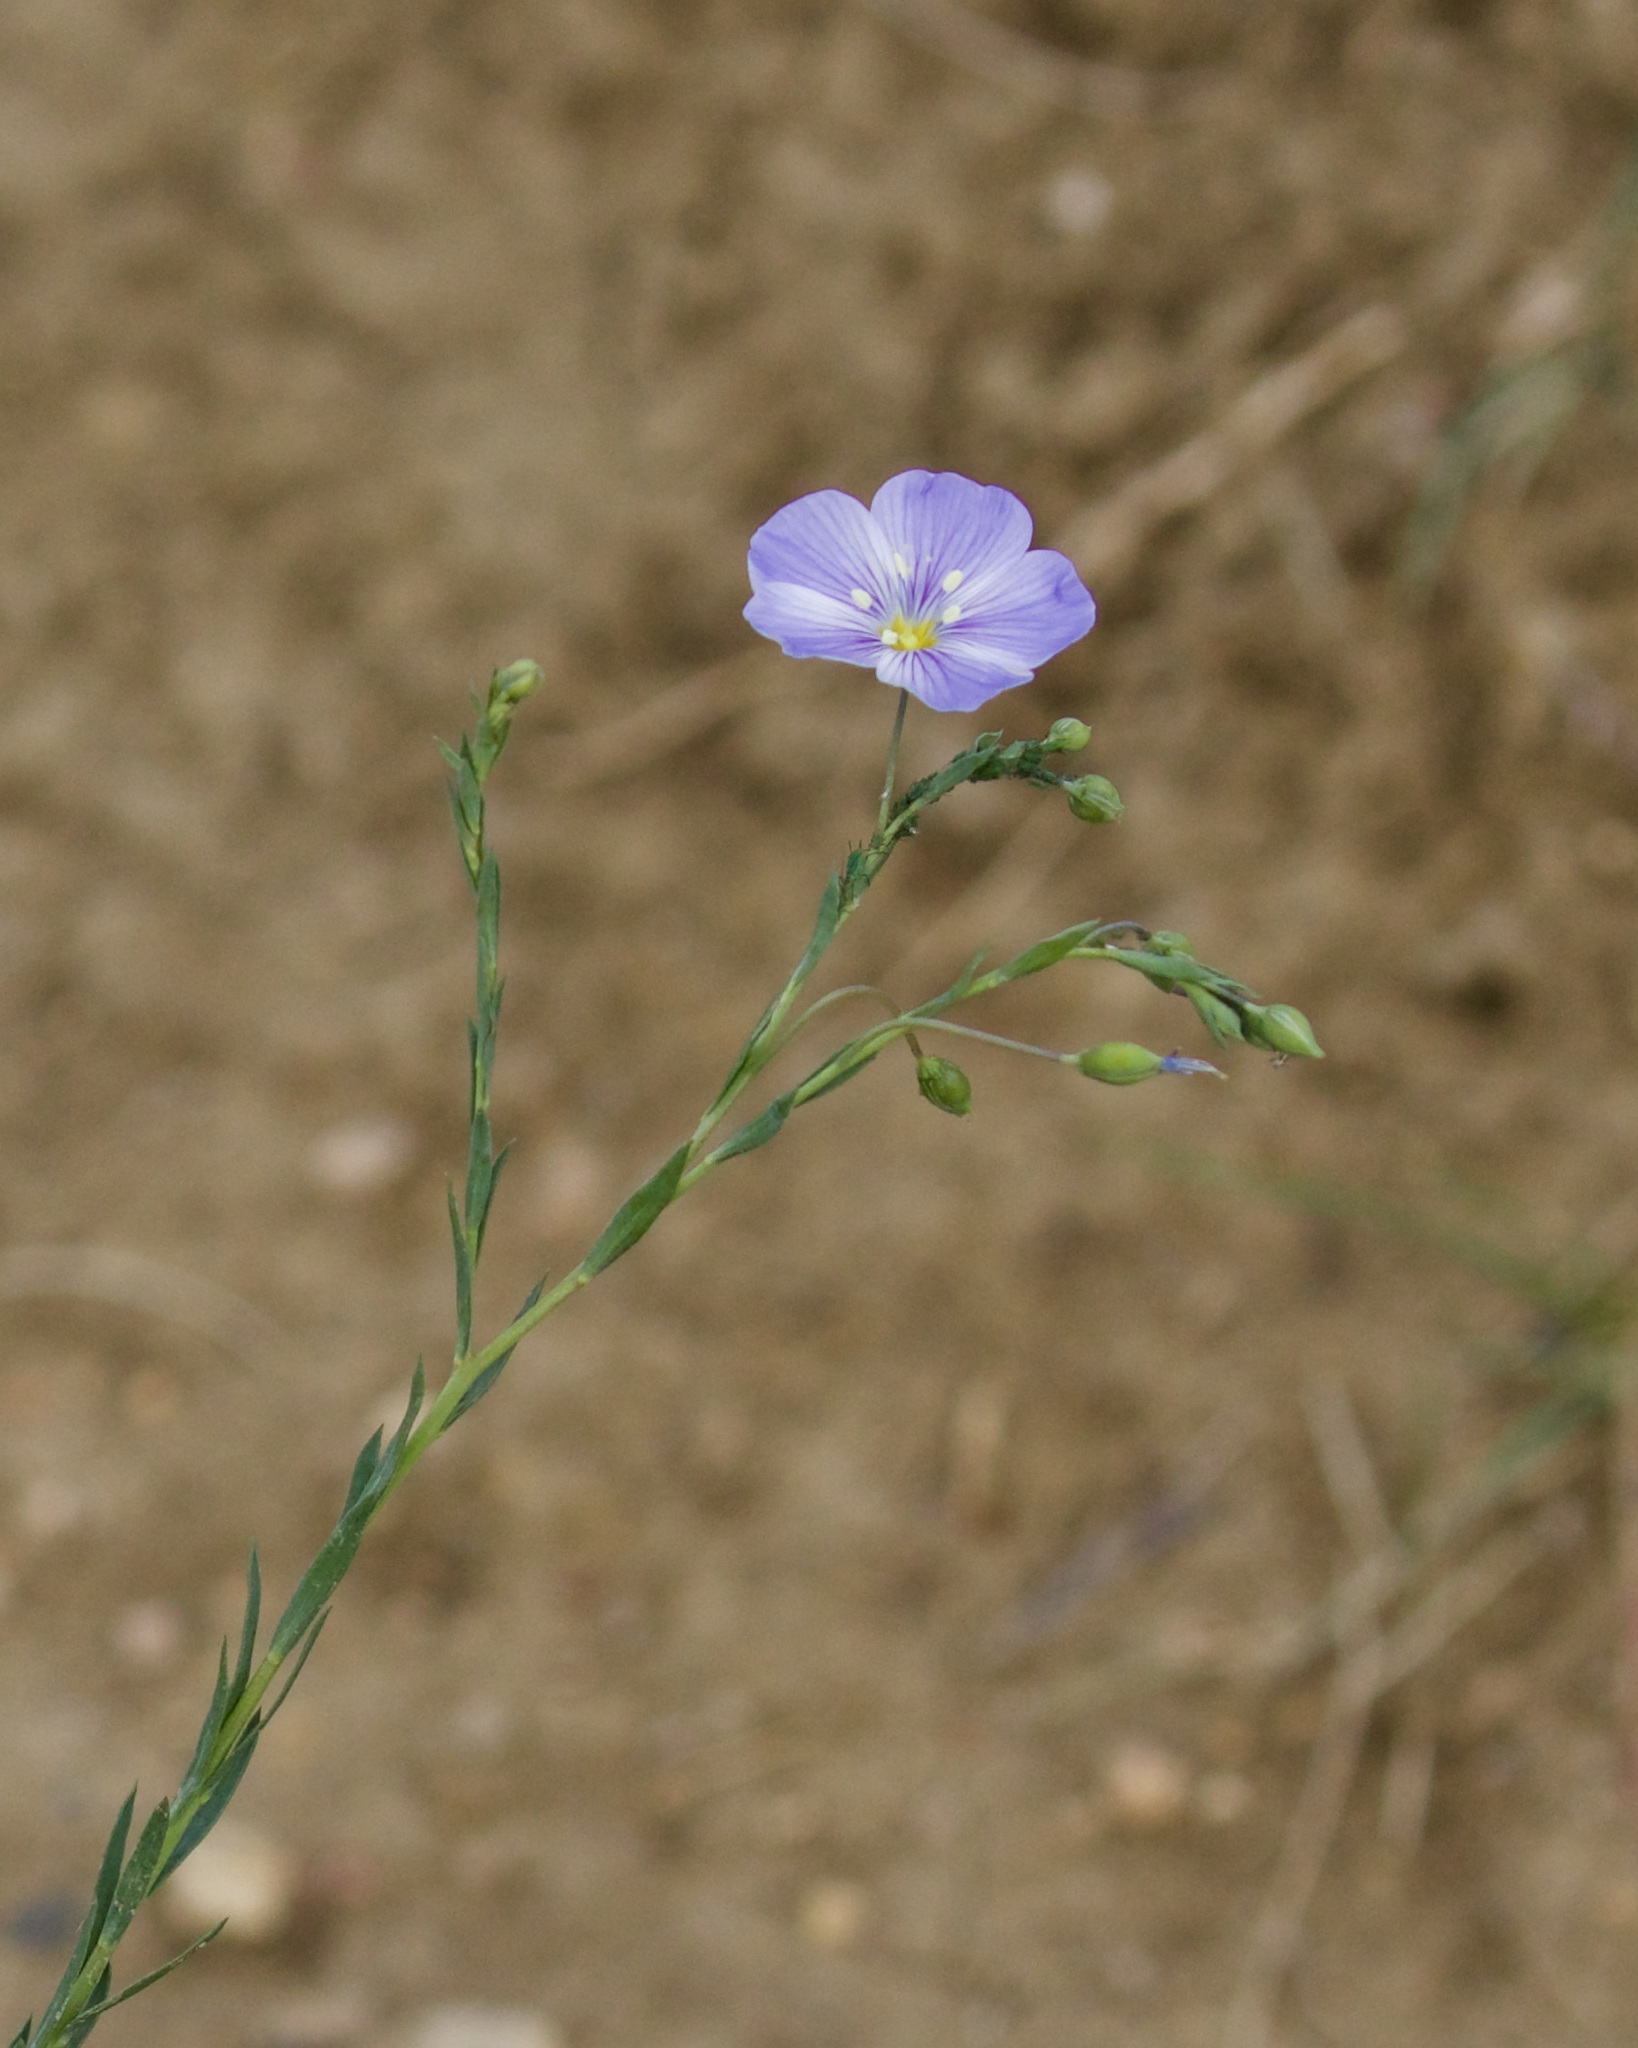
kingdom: Plantae
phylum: Tracheophyta
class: Magnoliopsida
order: Malpighiales
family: Linaceae
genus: Linum
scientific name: Linum lewisii
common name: Prairie flax
